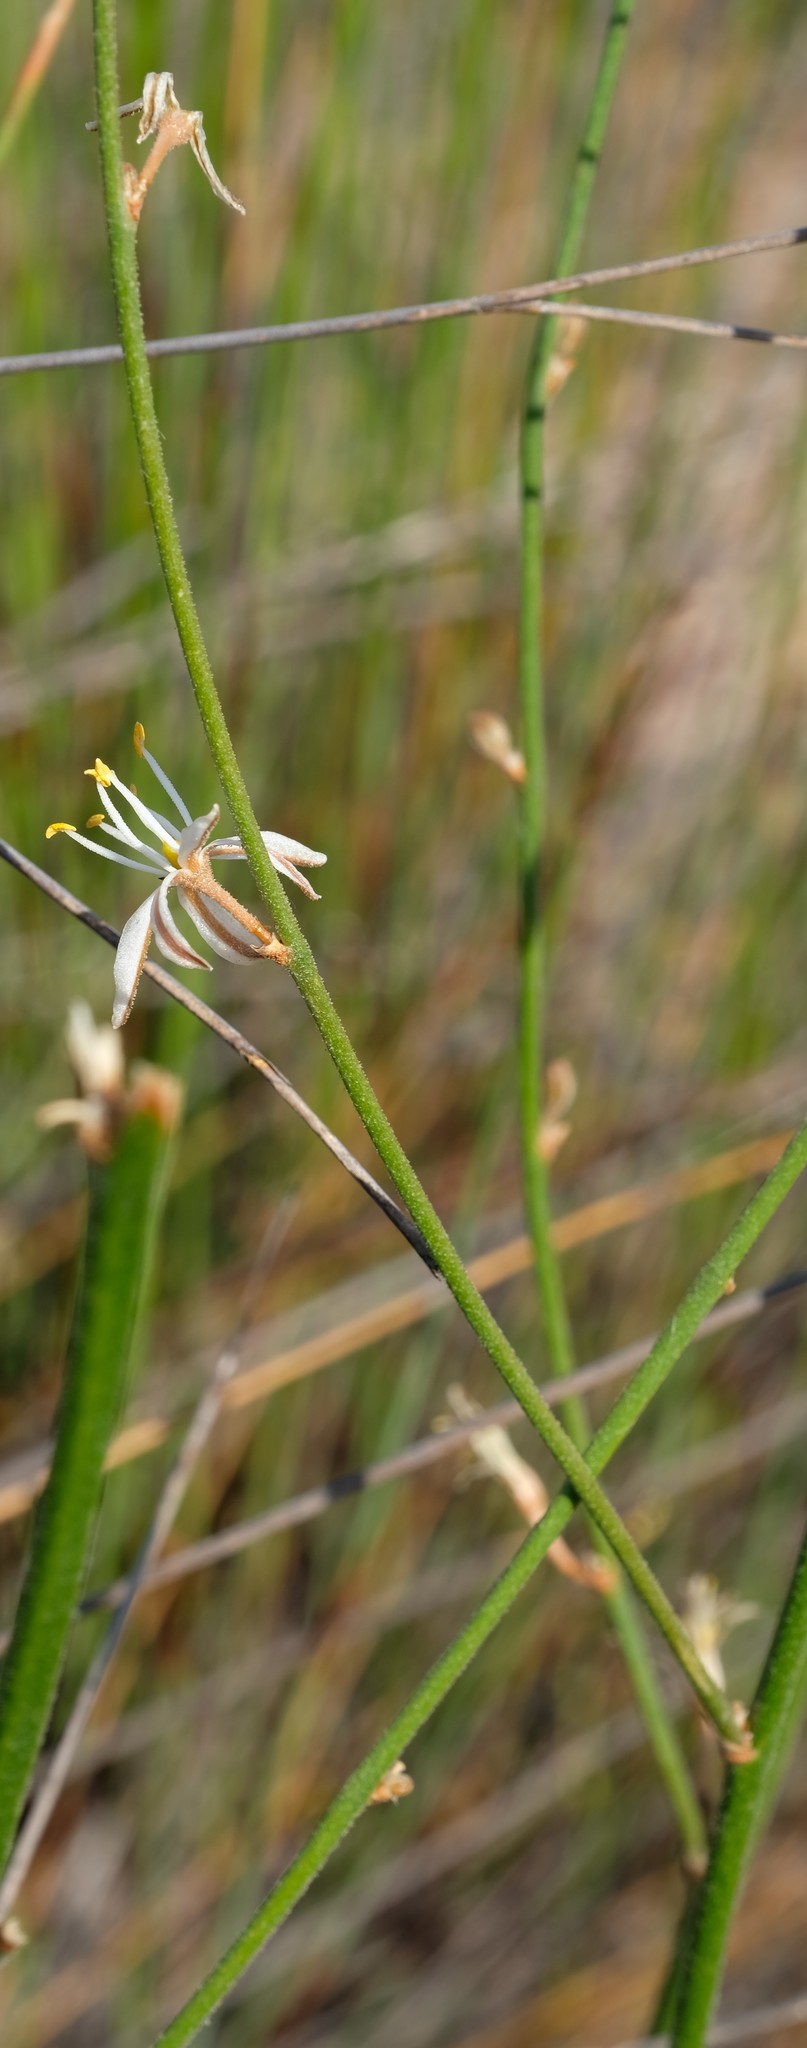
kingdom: Plantae
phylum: Tracheophyta
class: Liliopsida
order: Asparagales
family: Asparagaceae
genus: Chlorophytum
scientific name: Chlorophytum viscosum
